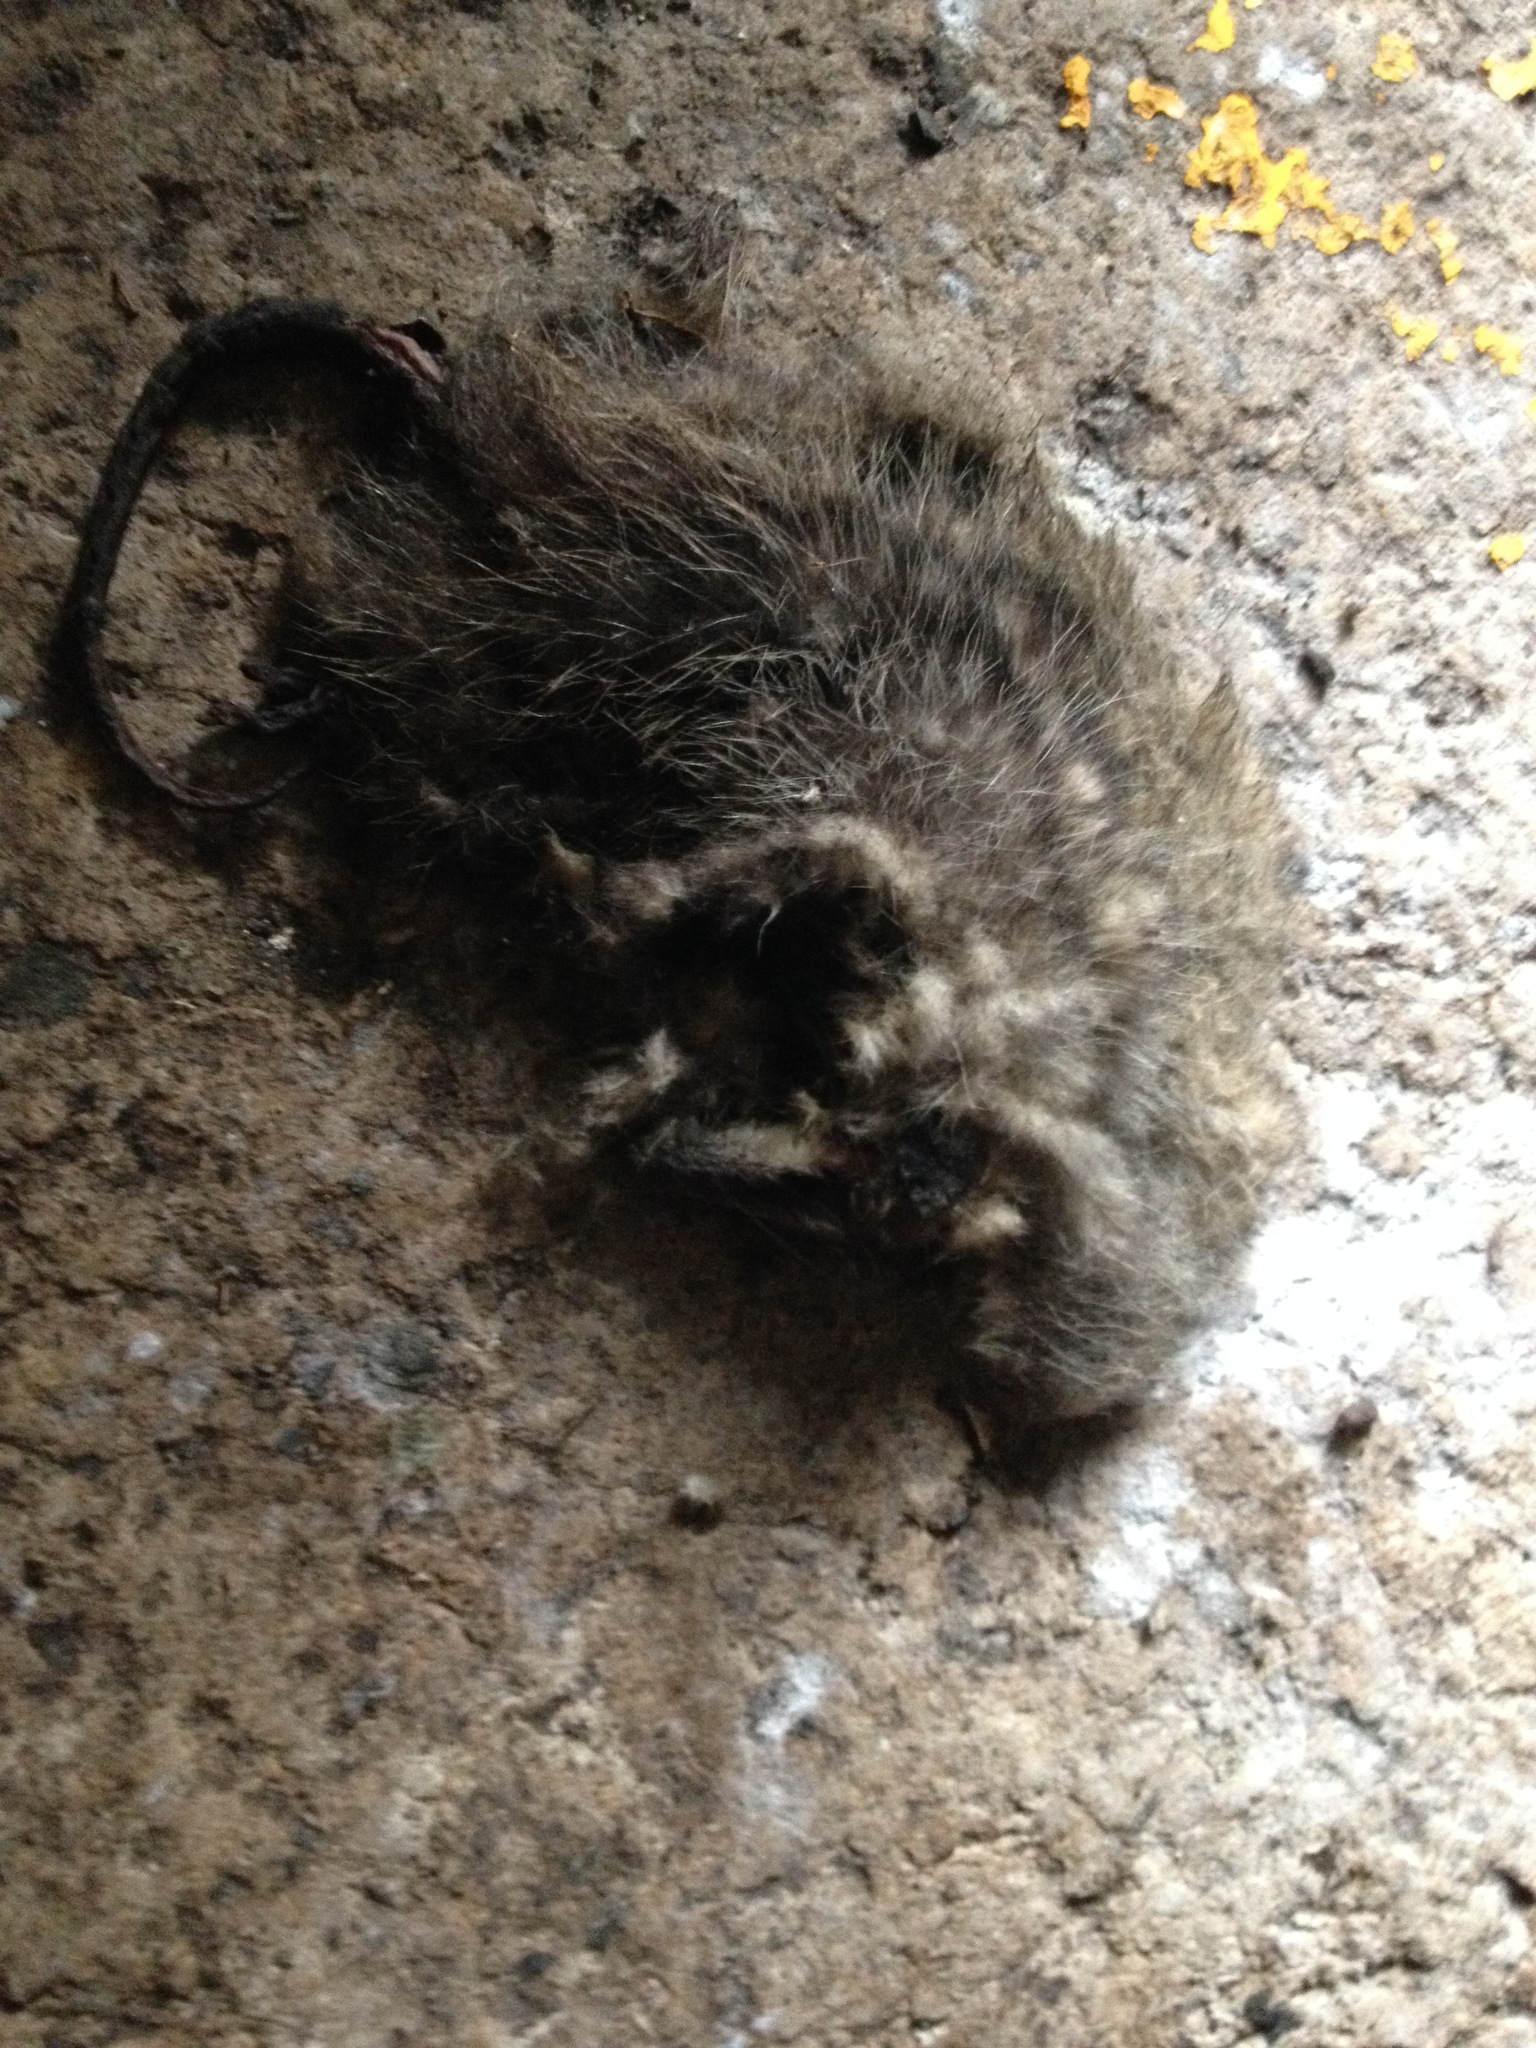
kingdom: Animalia
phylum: Chordata
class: Mammalia
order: Didelphimorphia
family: Didelphidae
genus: Didelphis
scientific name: Didelphis virginiana
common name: Virginia opossum
